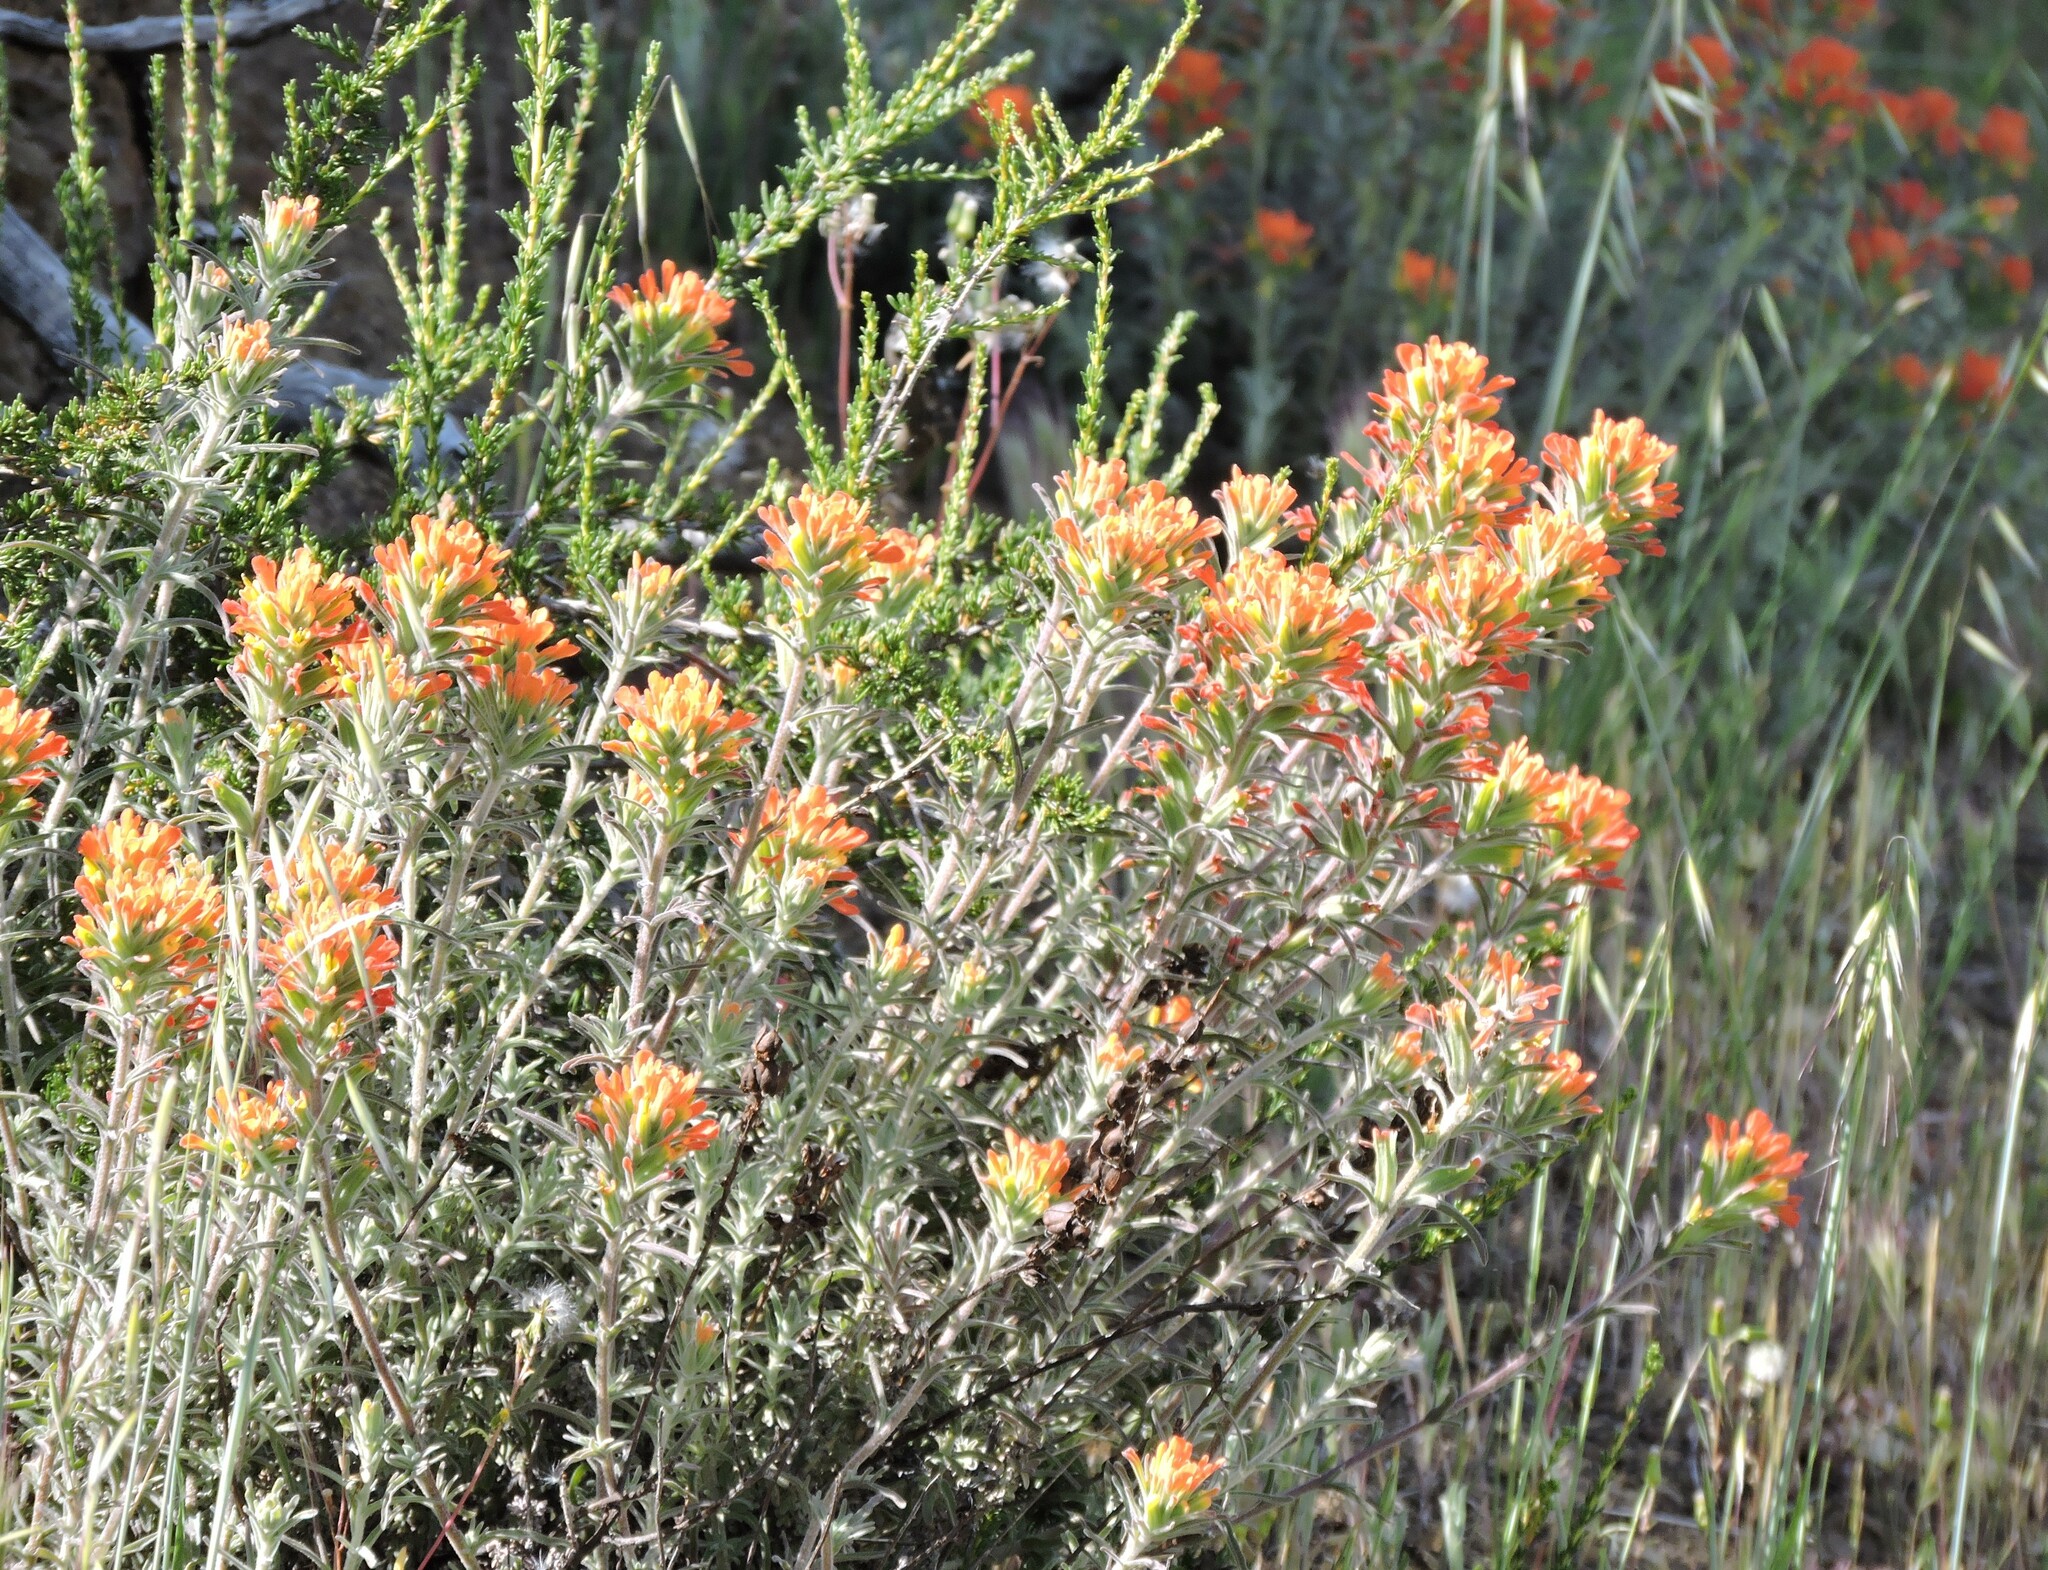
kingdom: Plantae
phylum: Tracheophyta
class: Magnoliopsida
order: Lamiales
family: Orobanchaceae
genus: Castilleja
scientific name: Castilleja foliolosa
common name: Woolly indian paintbrush
